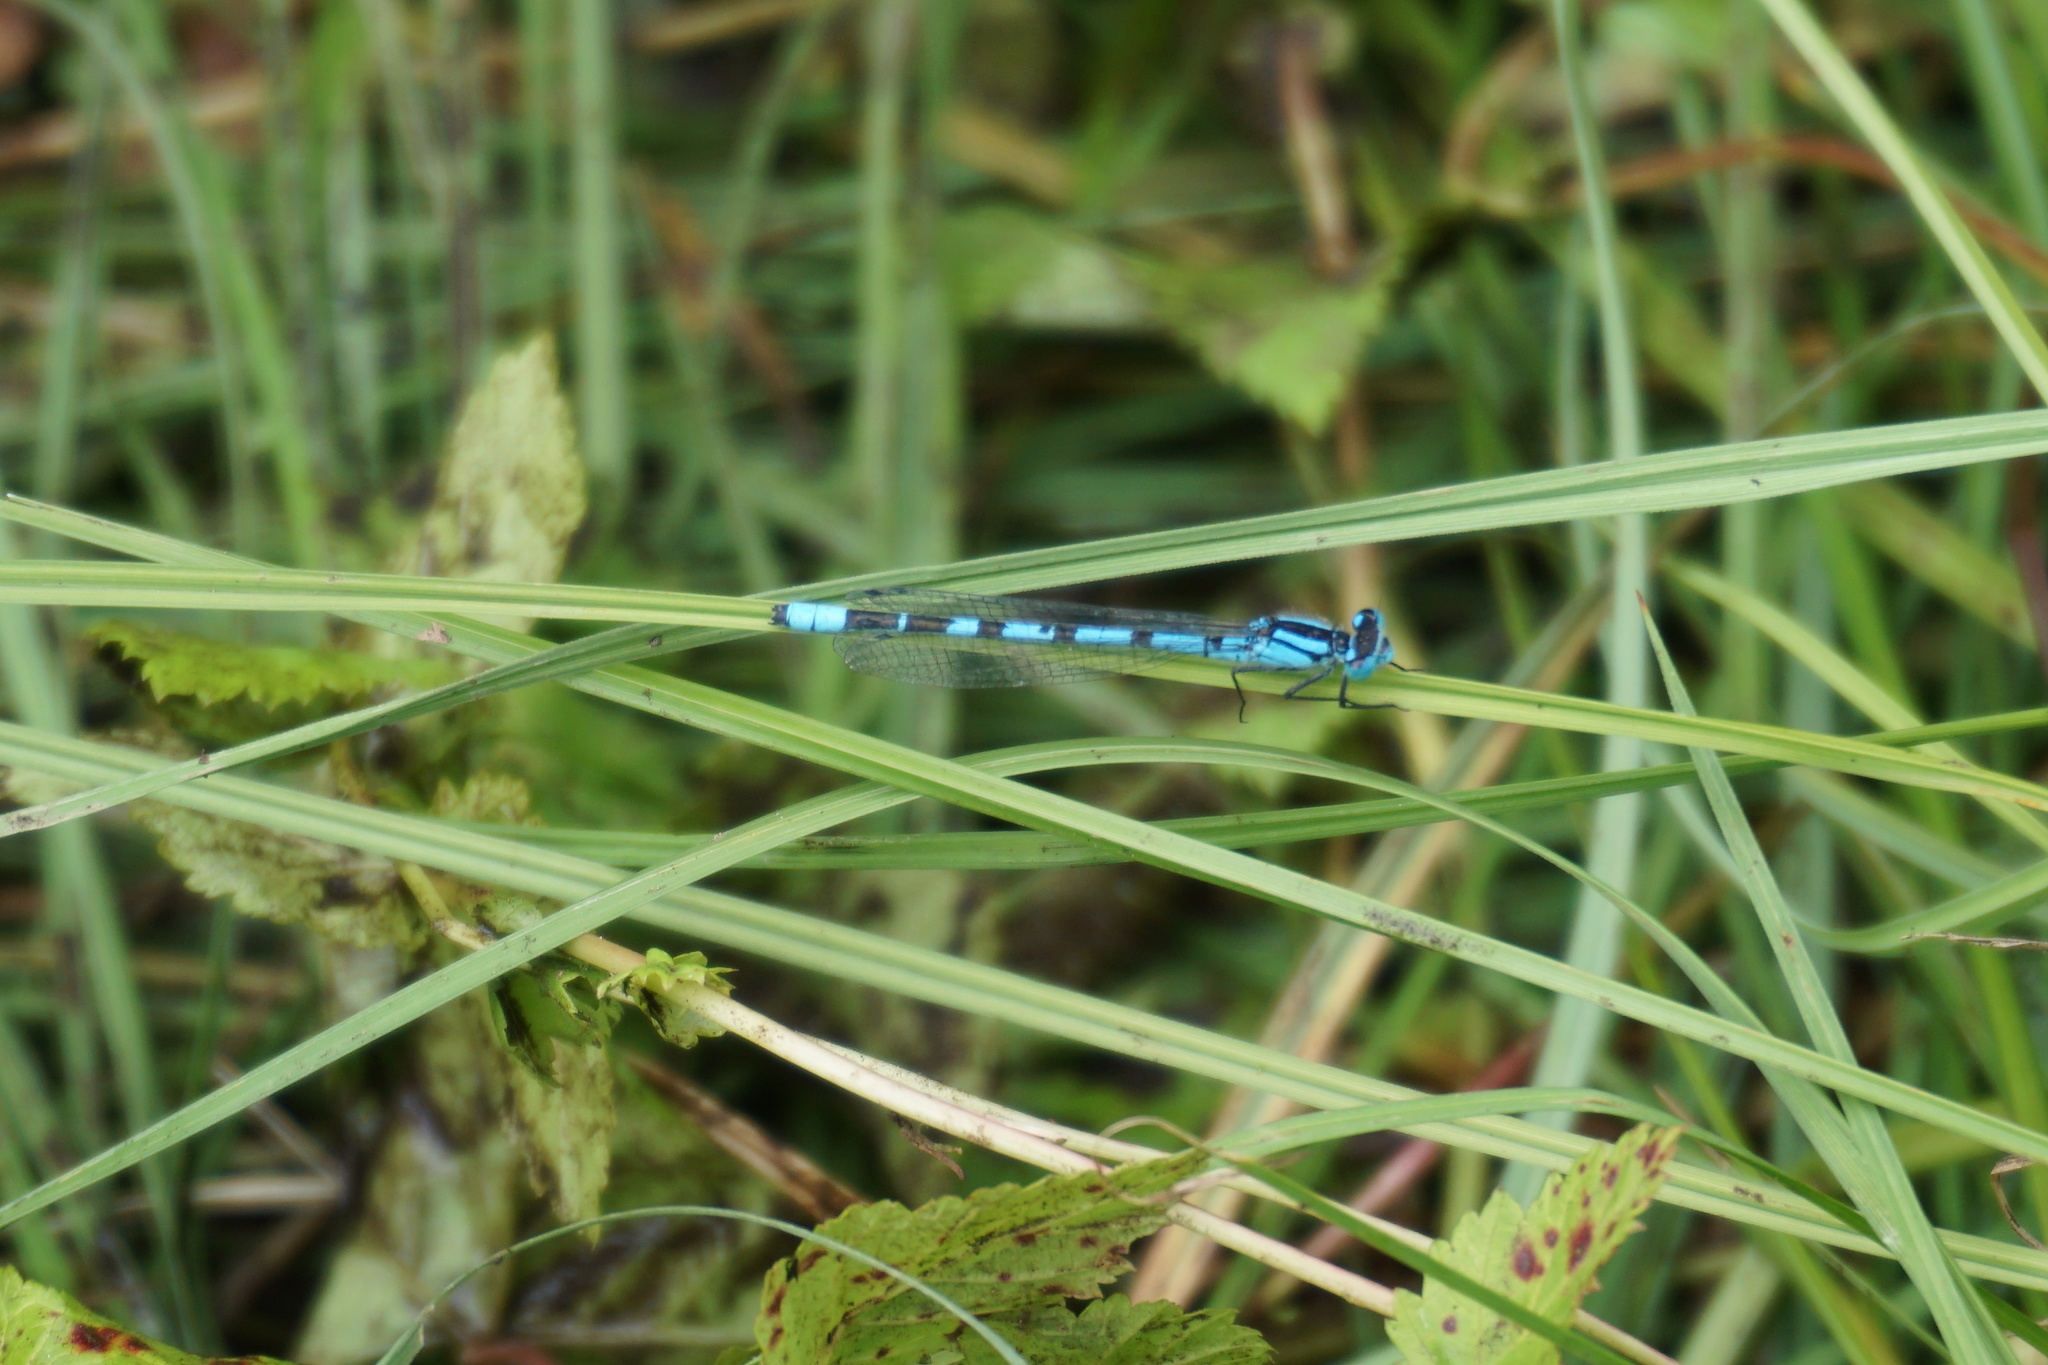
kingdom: Animalia
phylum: Arthropoda
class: Insecta
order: Odonata
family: Coenagrionidae
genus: Enallagma
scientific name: Enallagma cyathigerum
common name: Common blue damselfly
